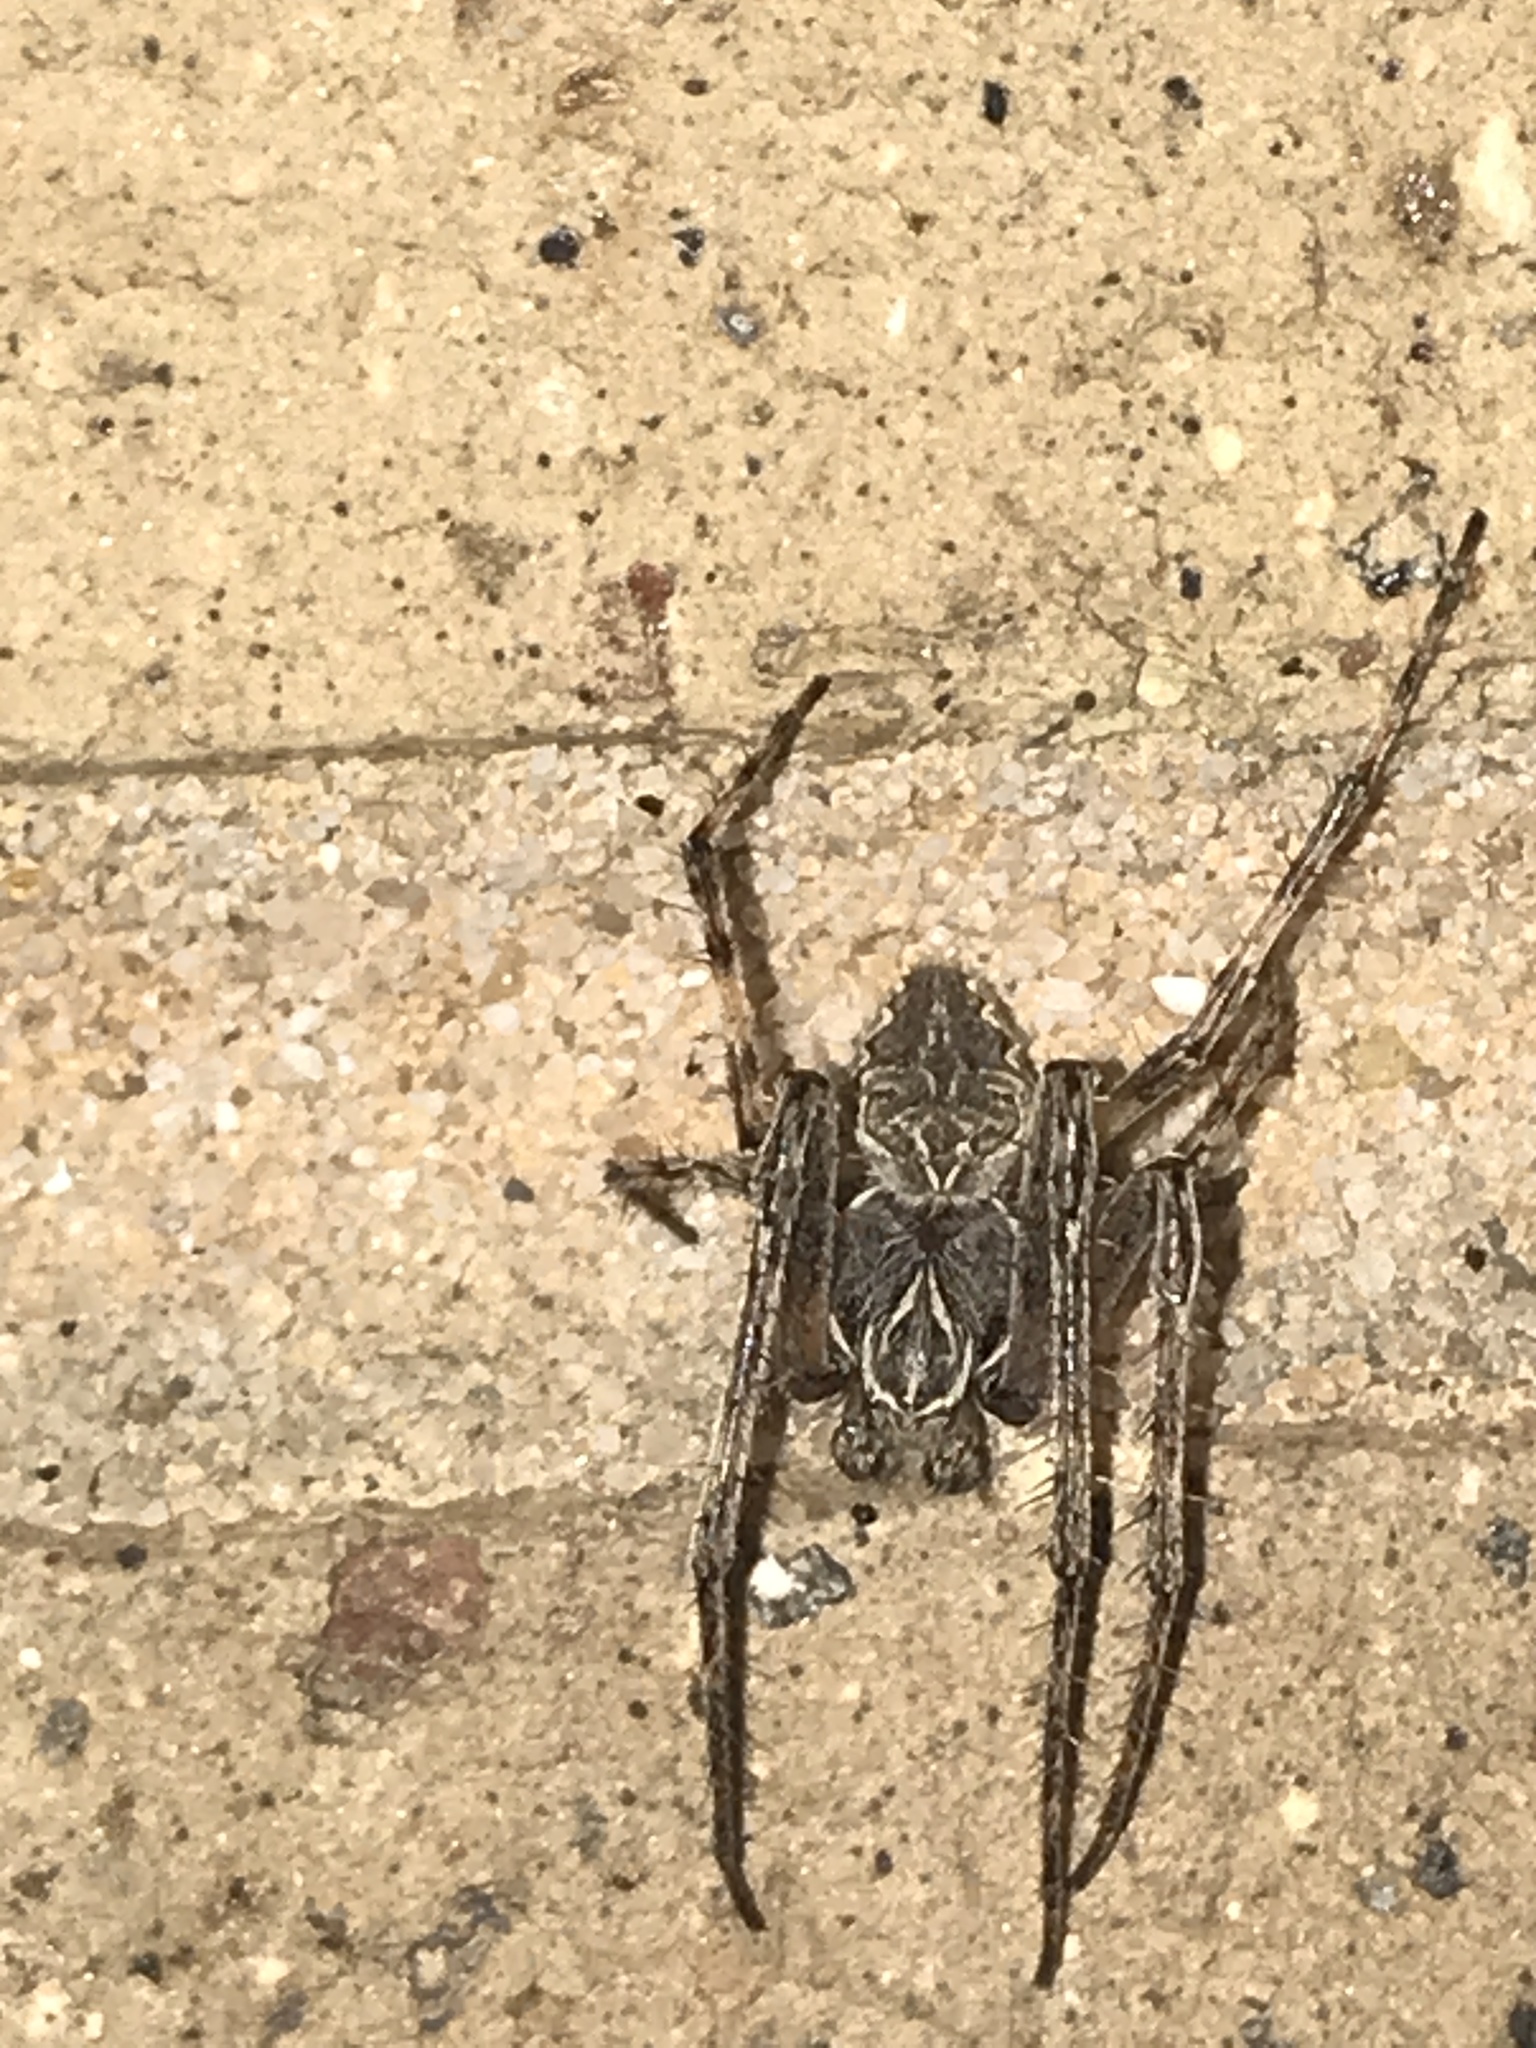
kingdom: Animalia
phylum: Arthropoda
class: Arachnida
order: Araneae
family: Araneidae
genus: Larinioides
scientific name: Larinioides sclopetarius
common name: Bridge orbweaver
